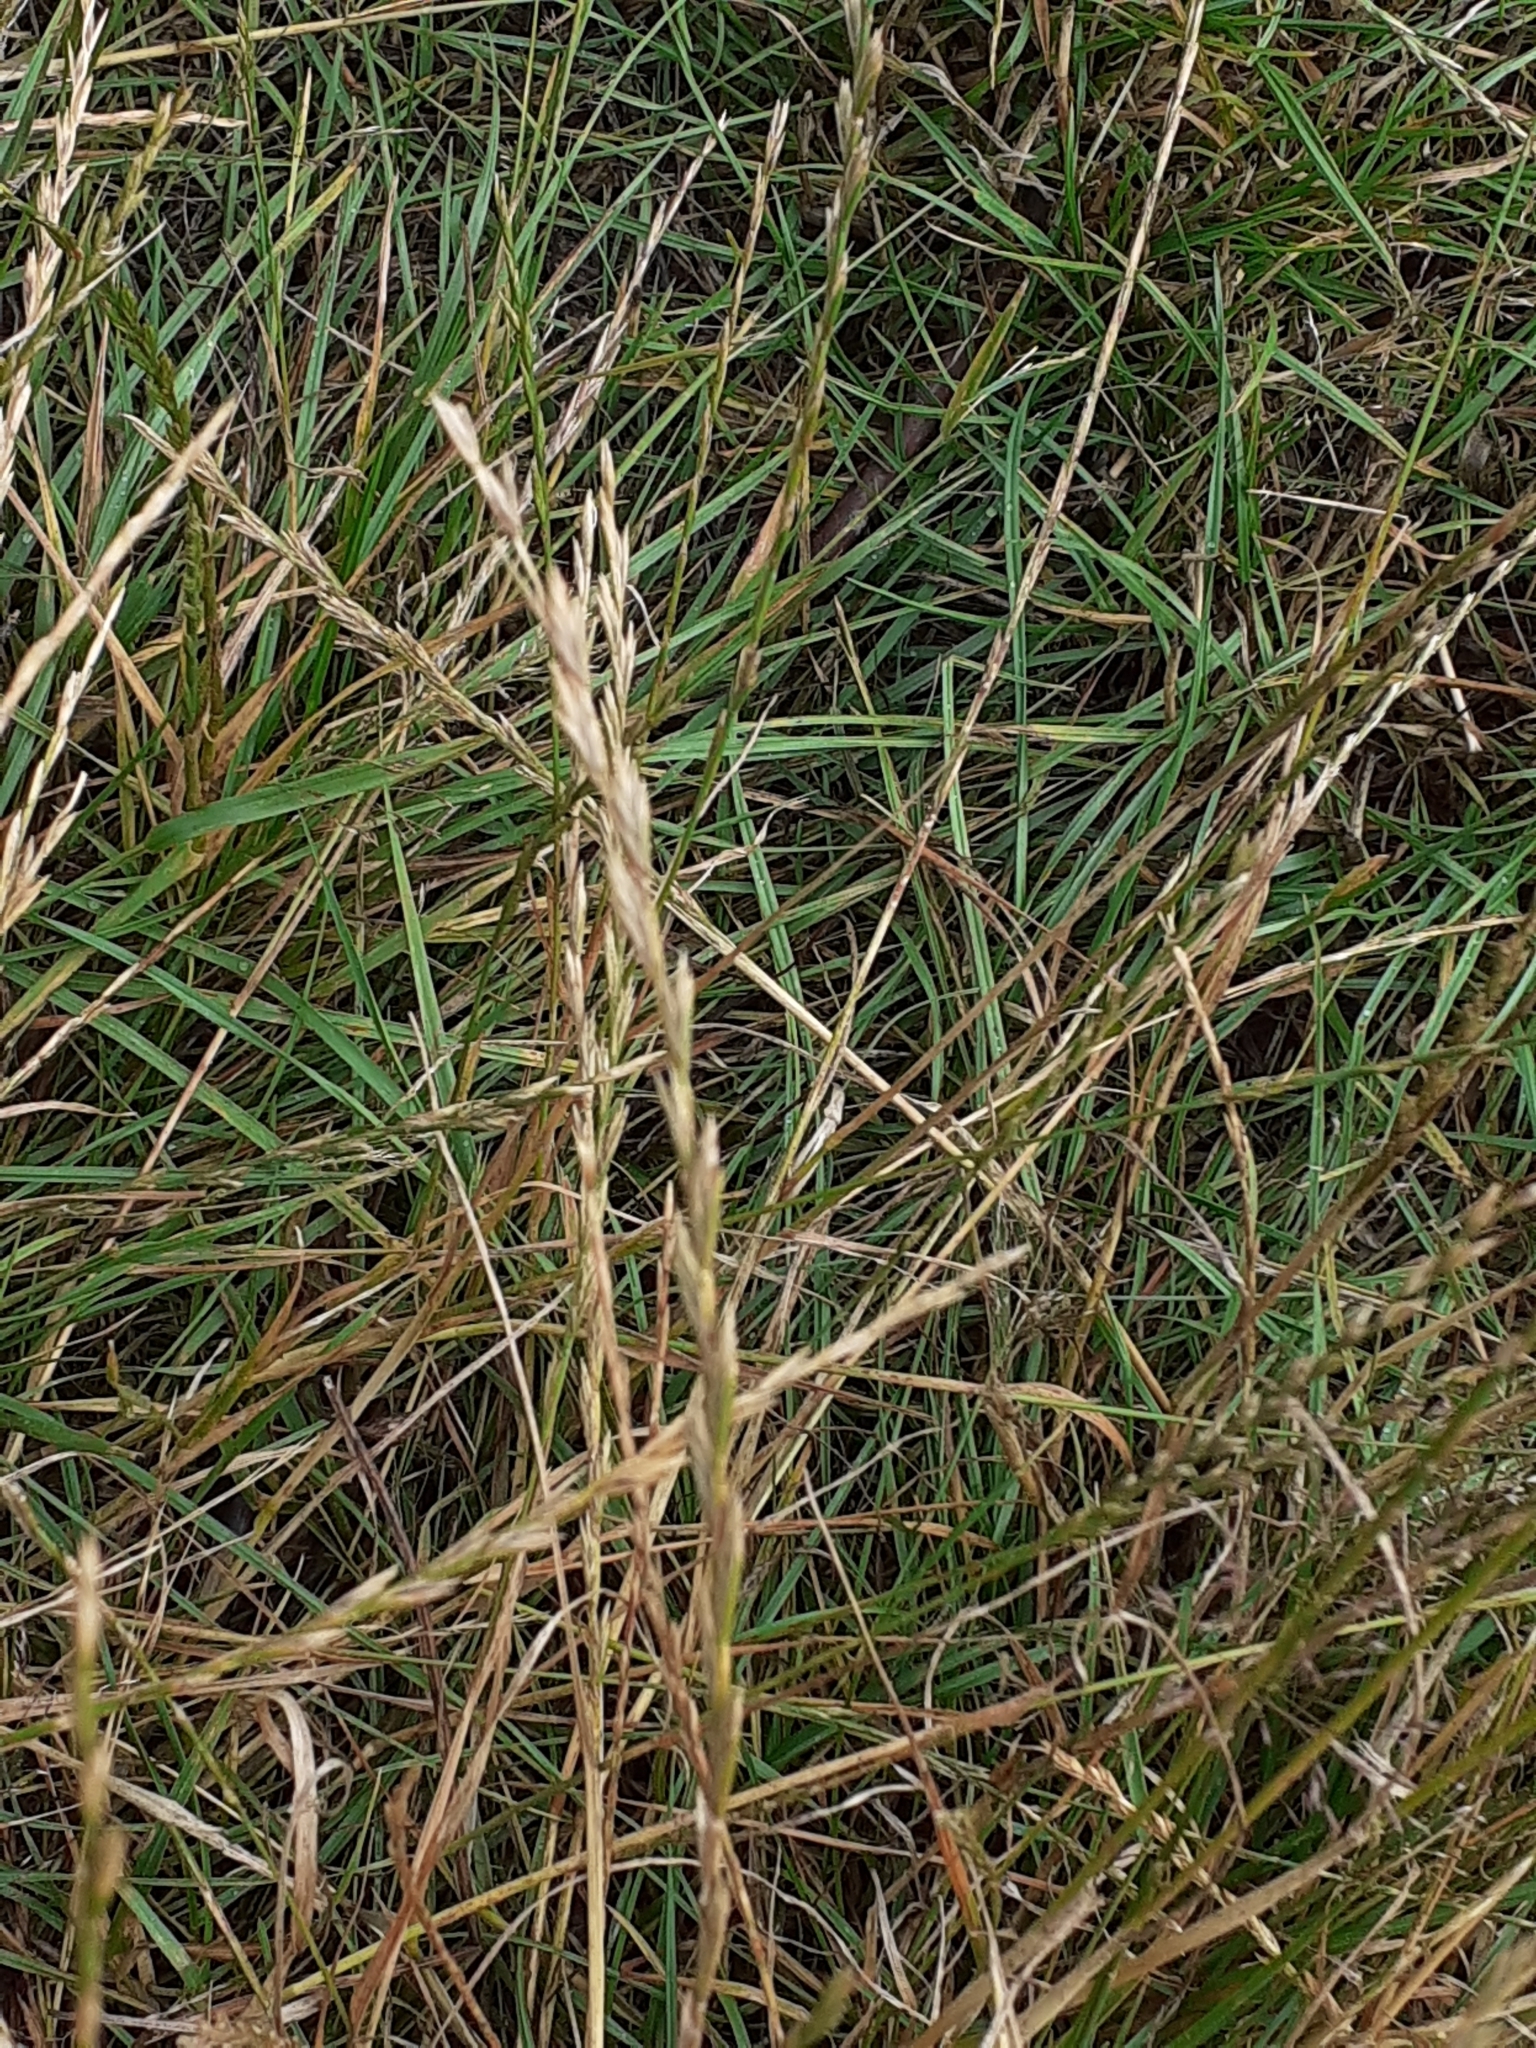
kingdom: Plantae
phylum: Tracheophyta
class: Liliopsida
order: Poales
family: Poaceae
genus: Lolium
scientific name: Lolium perenne
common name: Perennial ryegrass
